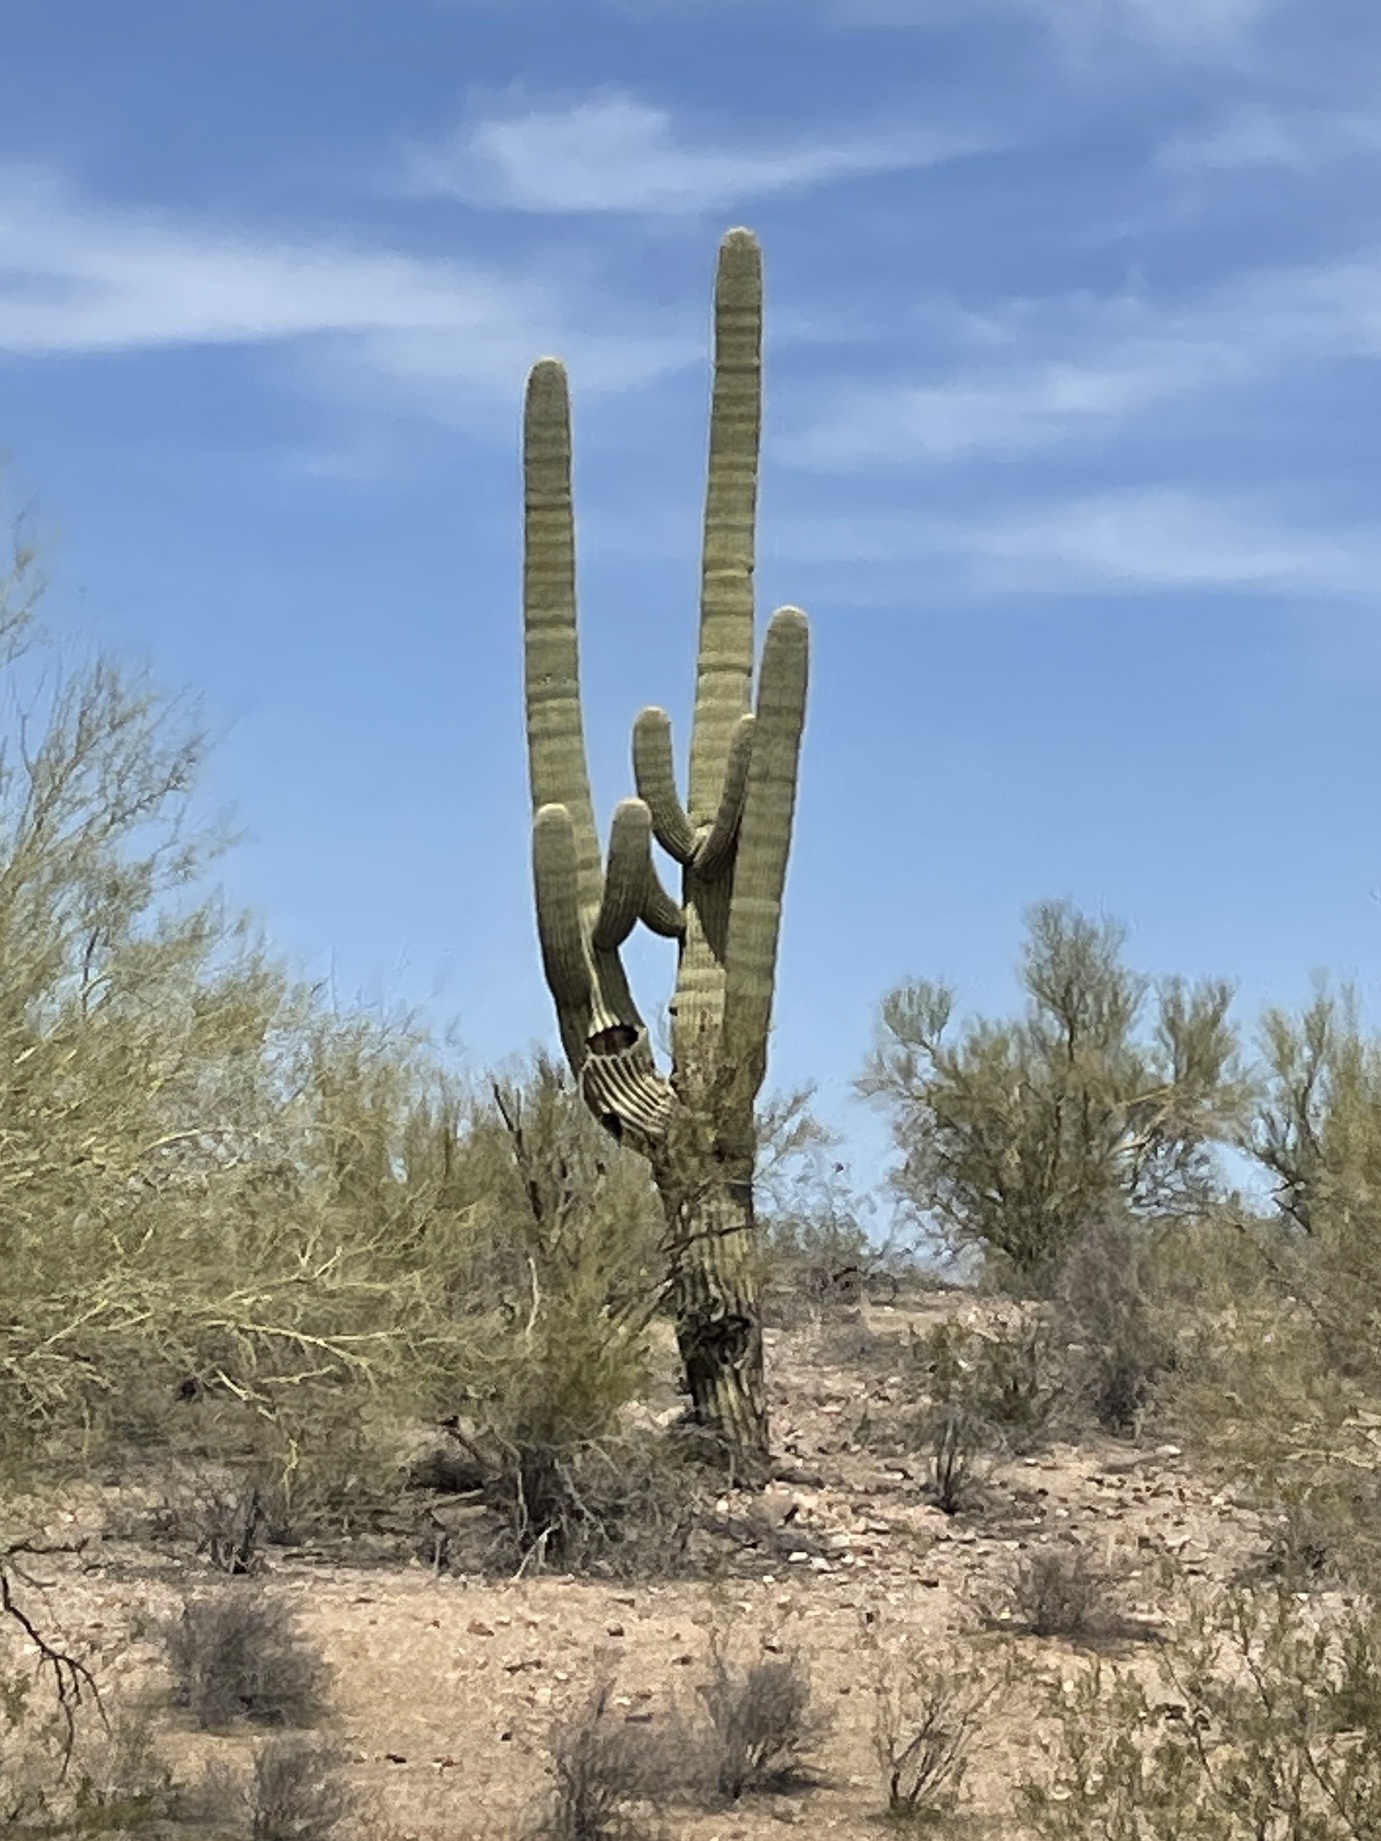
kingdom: Plantae
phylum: Tracheophyta
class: Magnoliopsida
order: Caryophyllales
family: Cactaceae
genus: Carnegiea
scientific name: Carnegiea gigantea
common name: Saguaro
